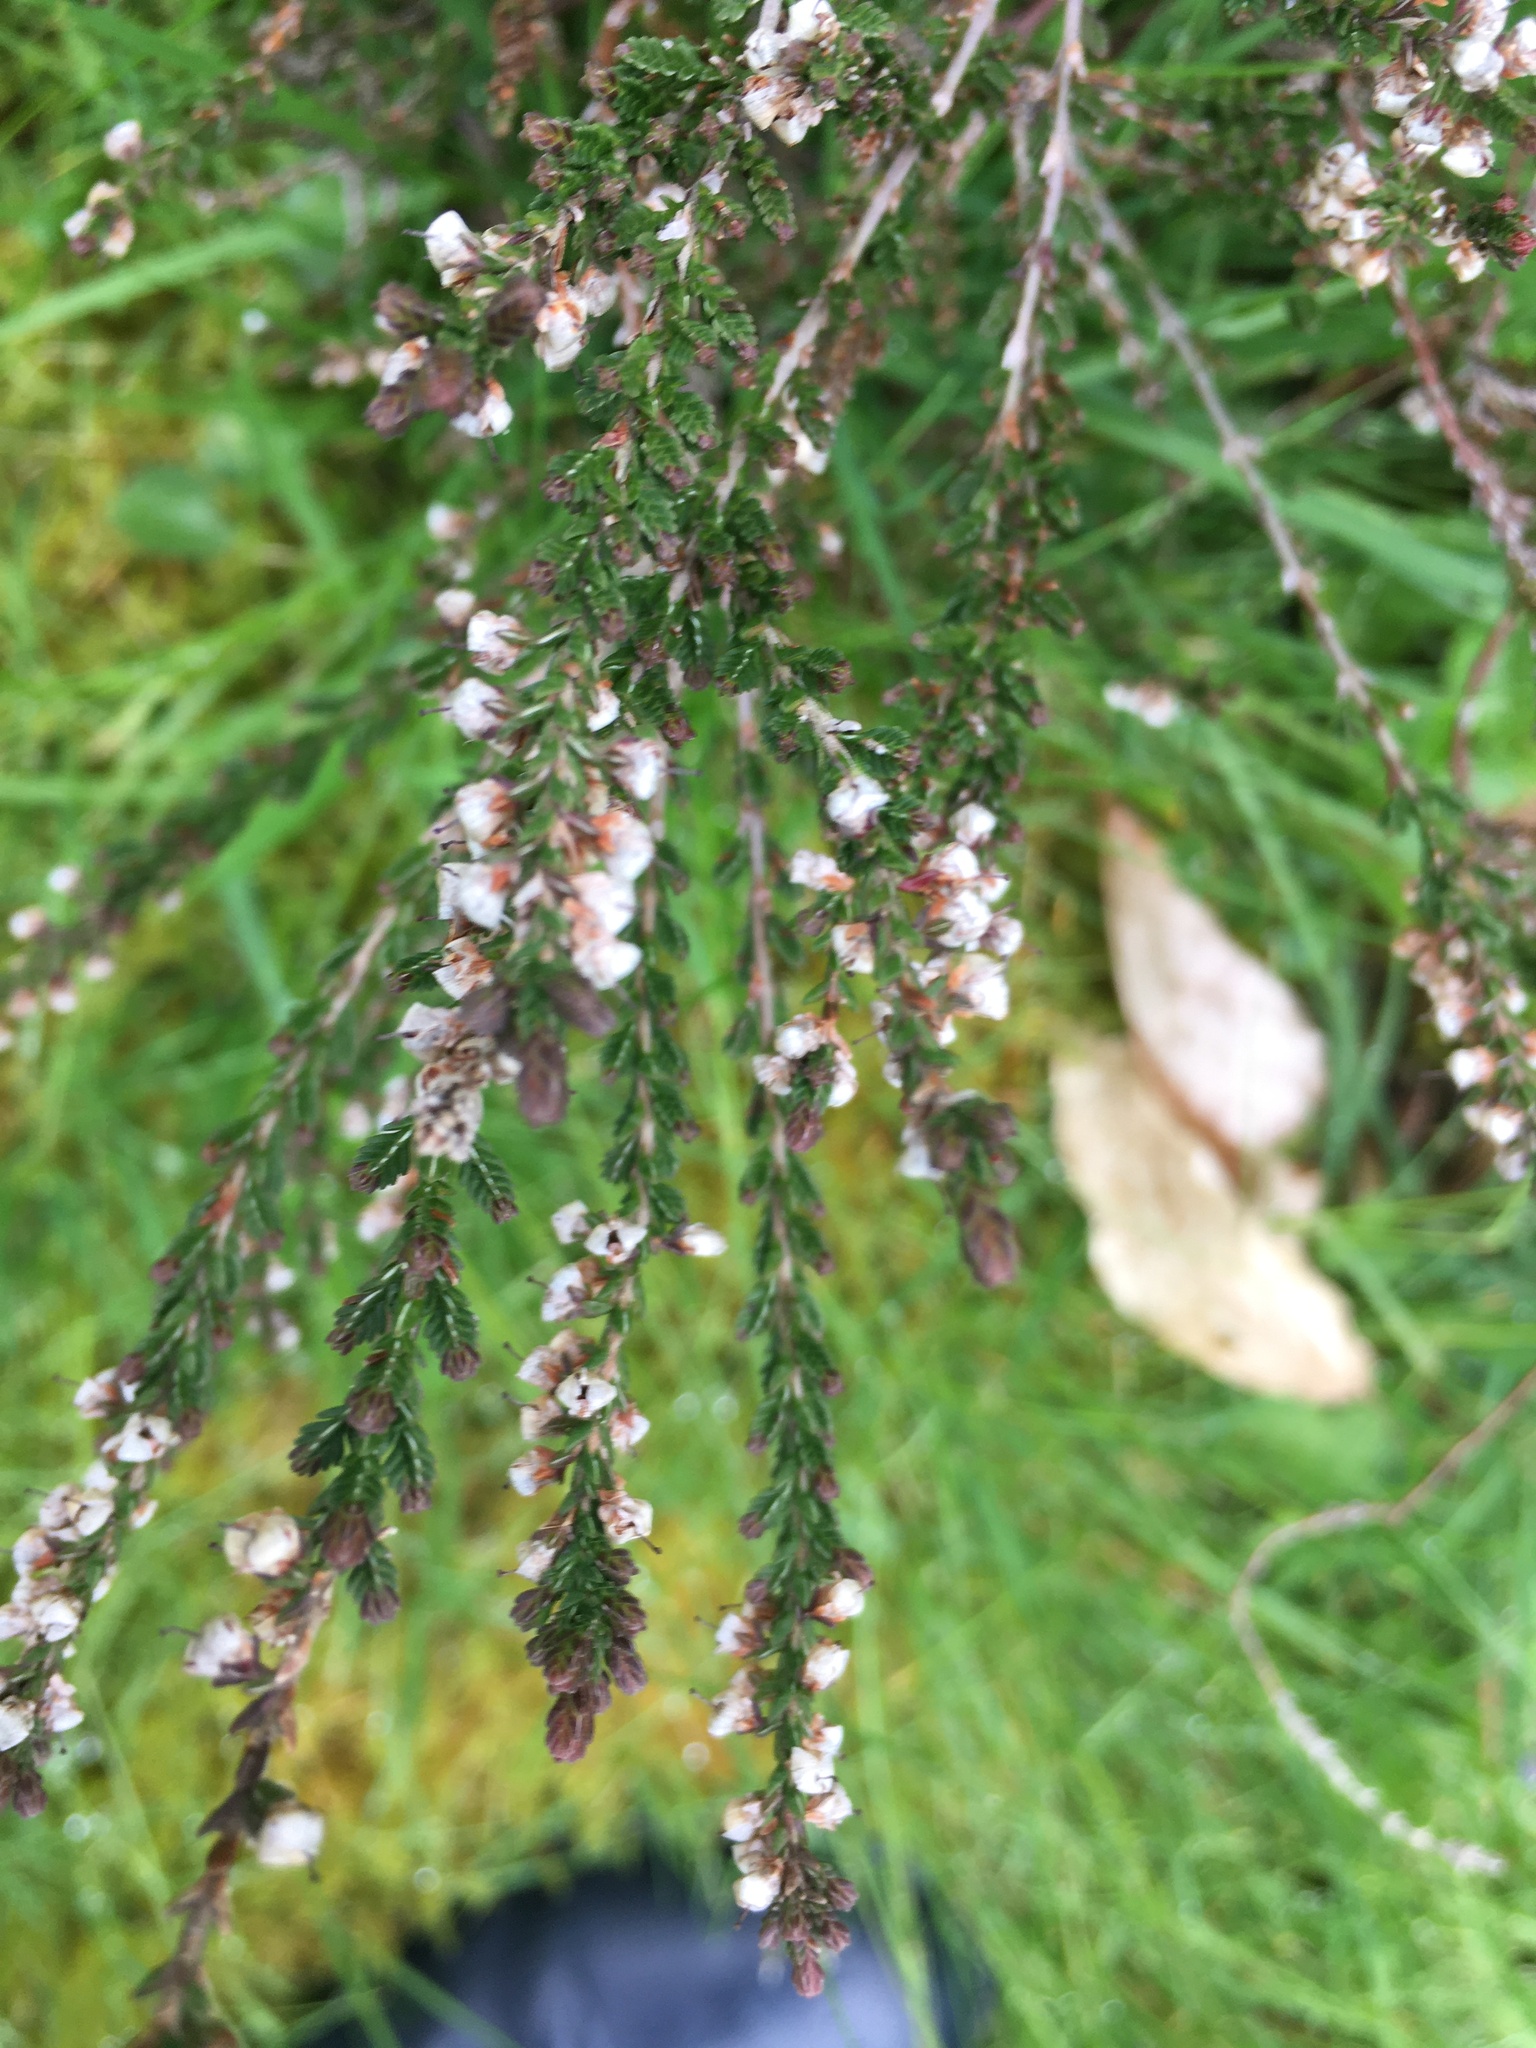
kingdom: Plantae
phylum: Tracheophyta
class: Magnoliopsida
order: Ericales
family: Ericaceae
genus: Calluna
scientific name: Calluna vulgaris
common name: Heather
